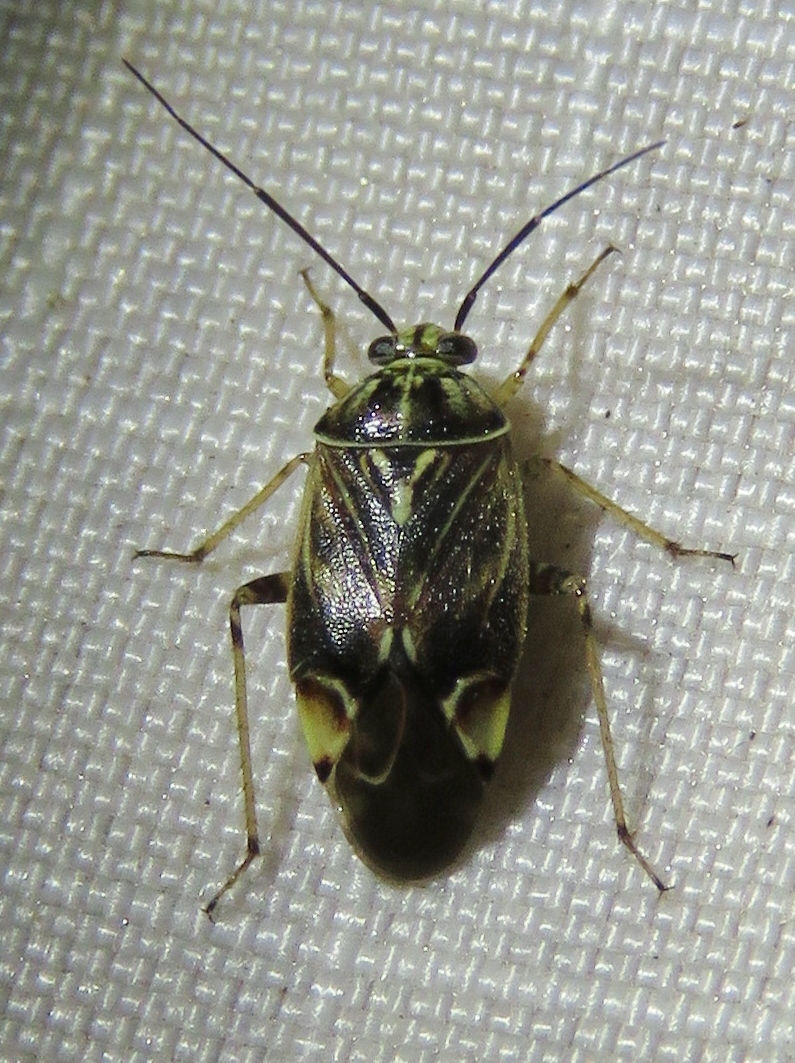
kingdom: Animalia
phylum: Arthropoda
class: Insecta
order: Hemiptera
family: Miridae
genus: Lygus
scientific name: Lygus lineolaris
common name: North american tarnished plant bug
